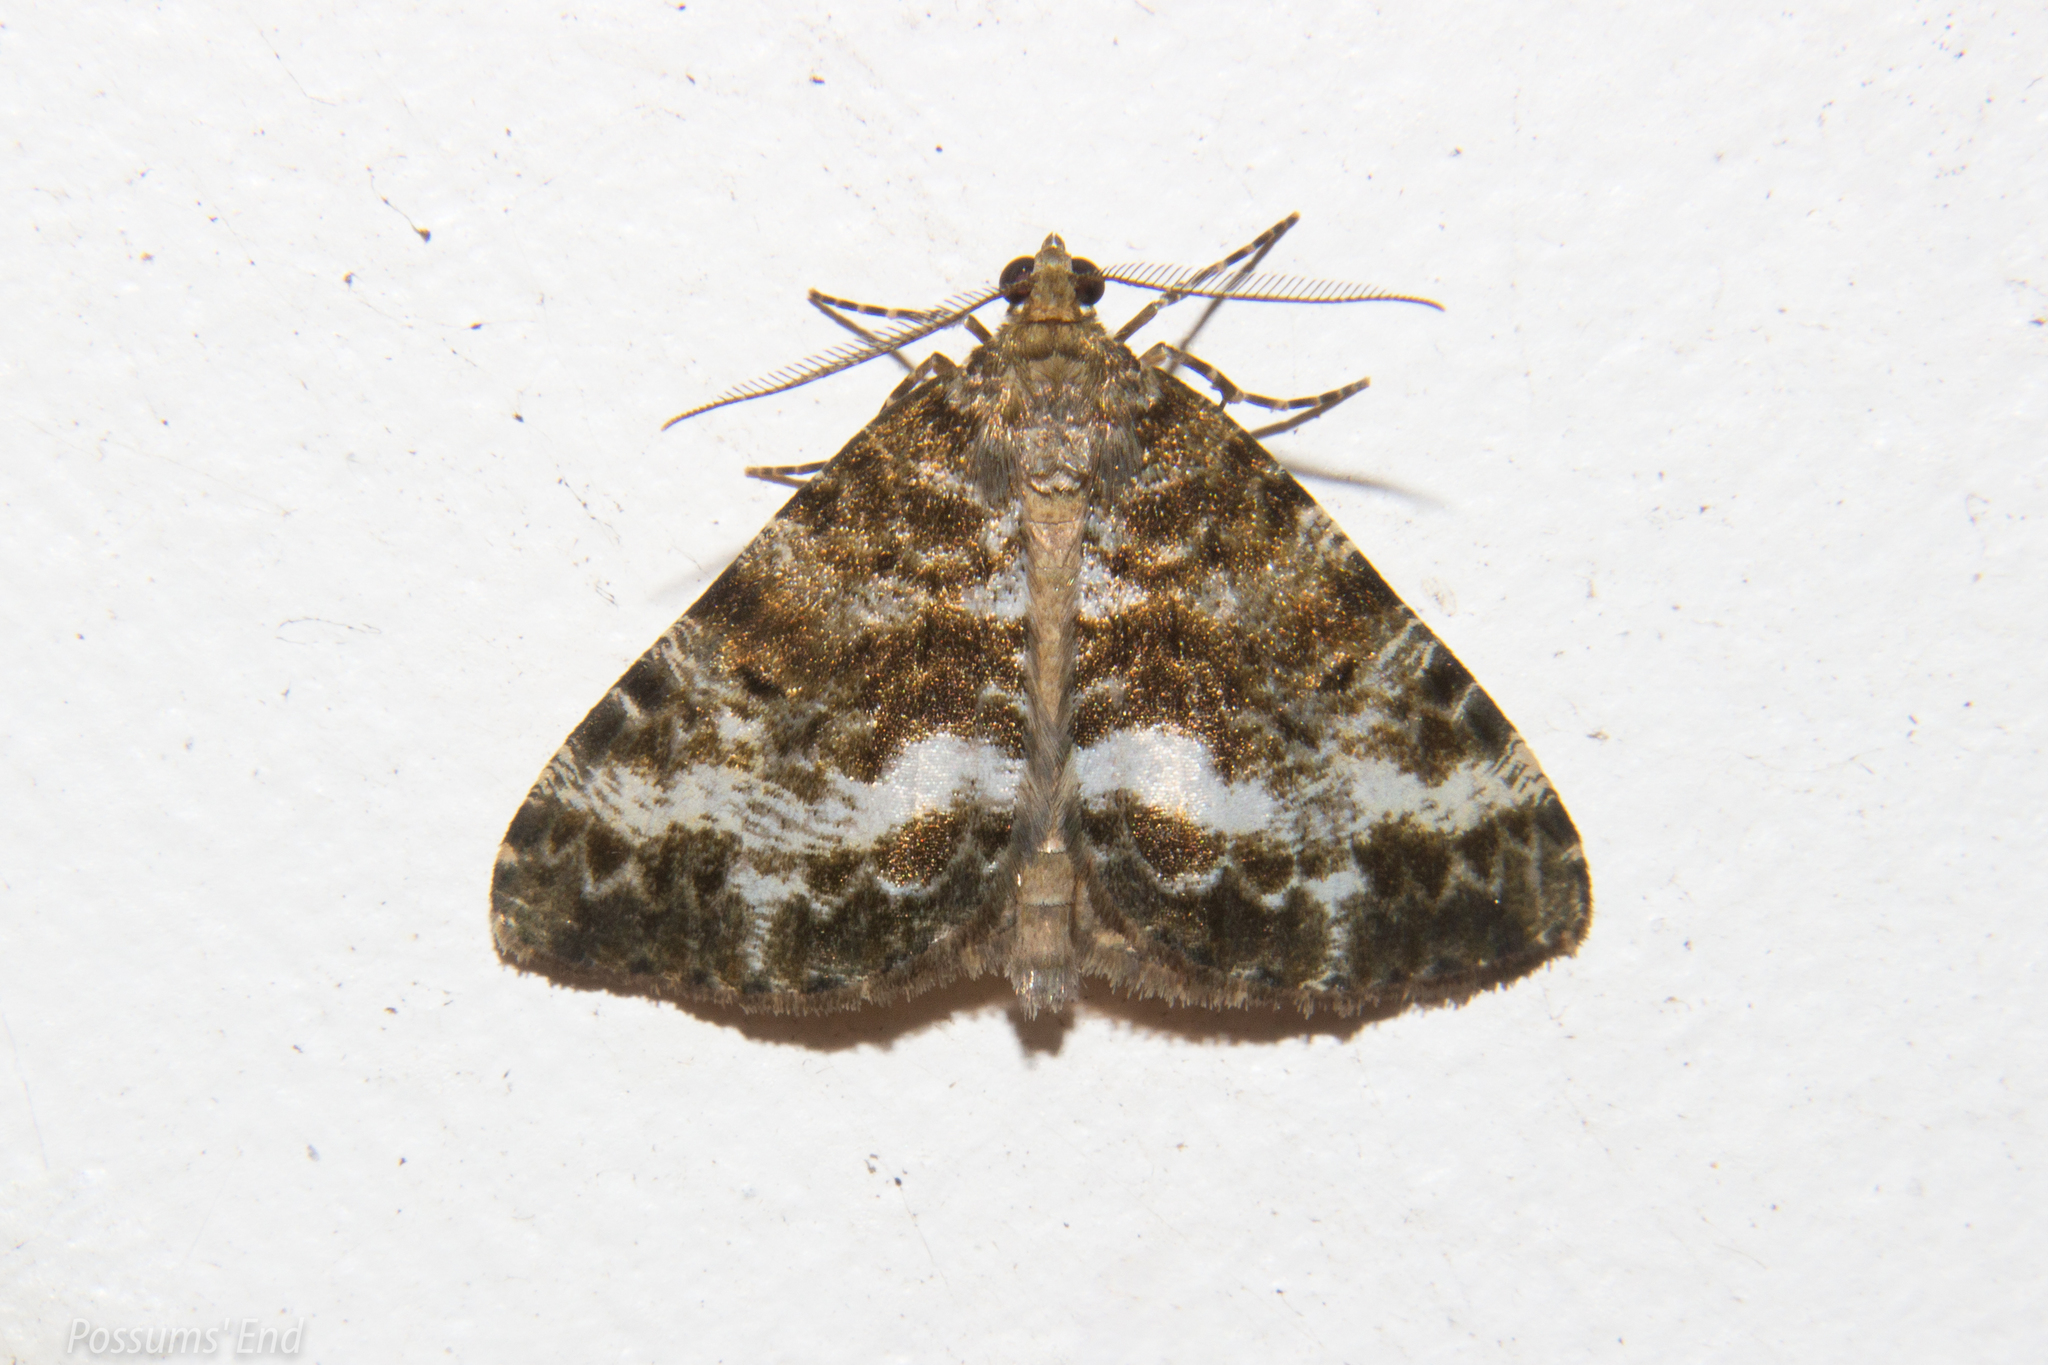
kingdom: Animalia
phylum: Arthropoda
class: Insecta
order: Lepidoptera
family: Geometridae
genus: Pseudocoremia
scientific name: Pseudocoremia lactiflua
